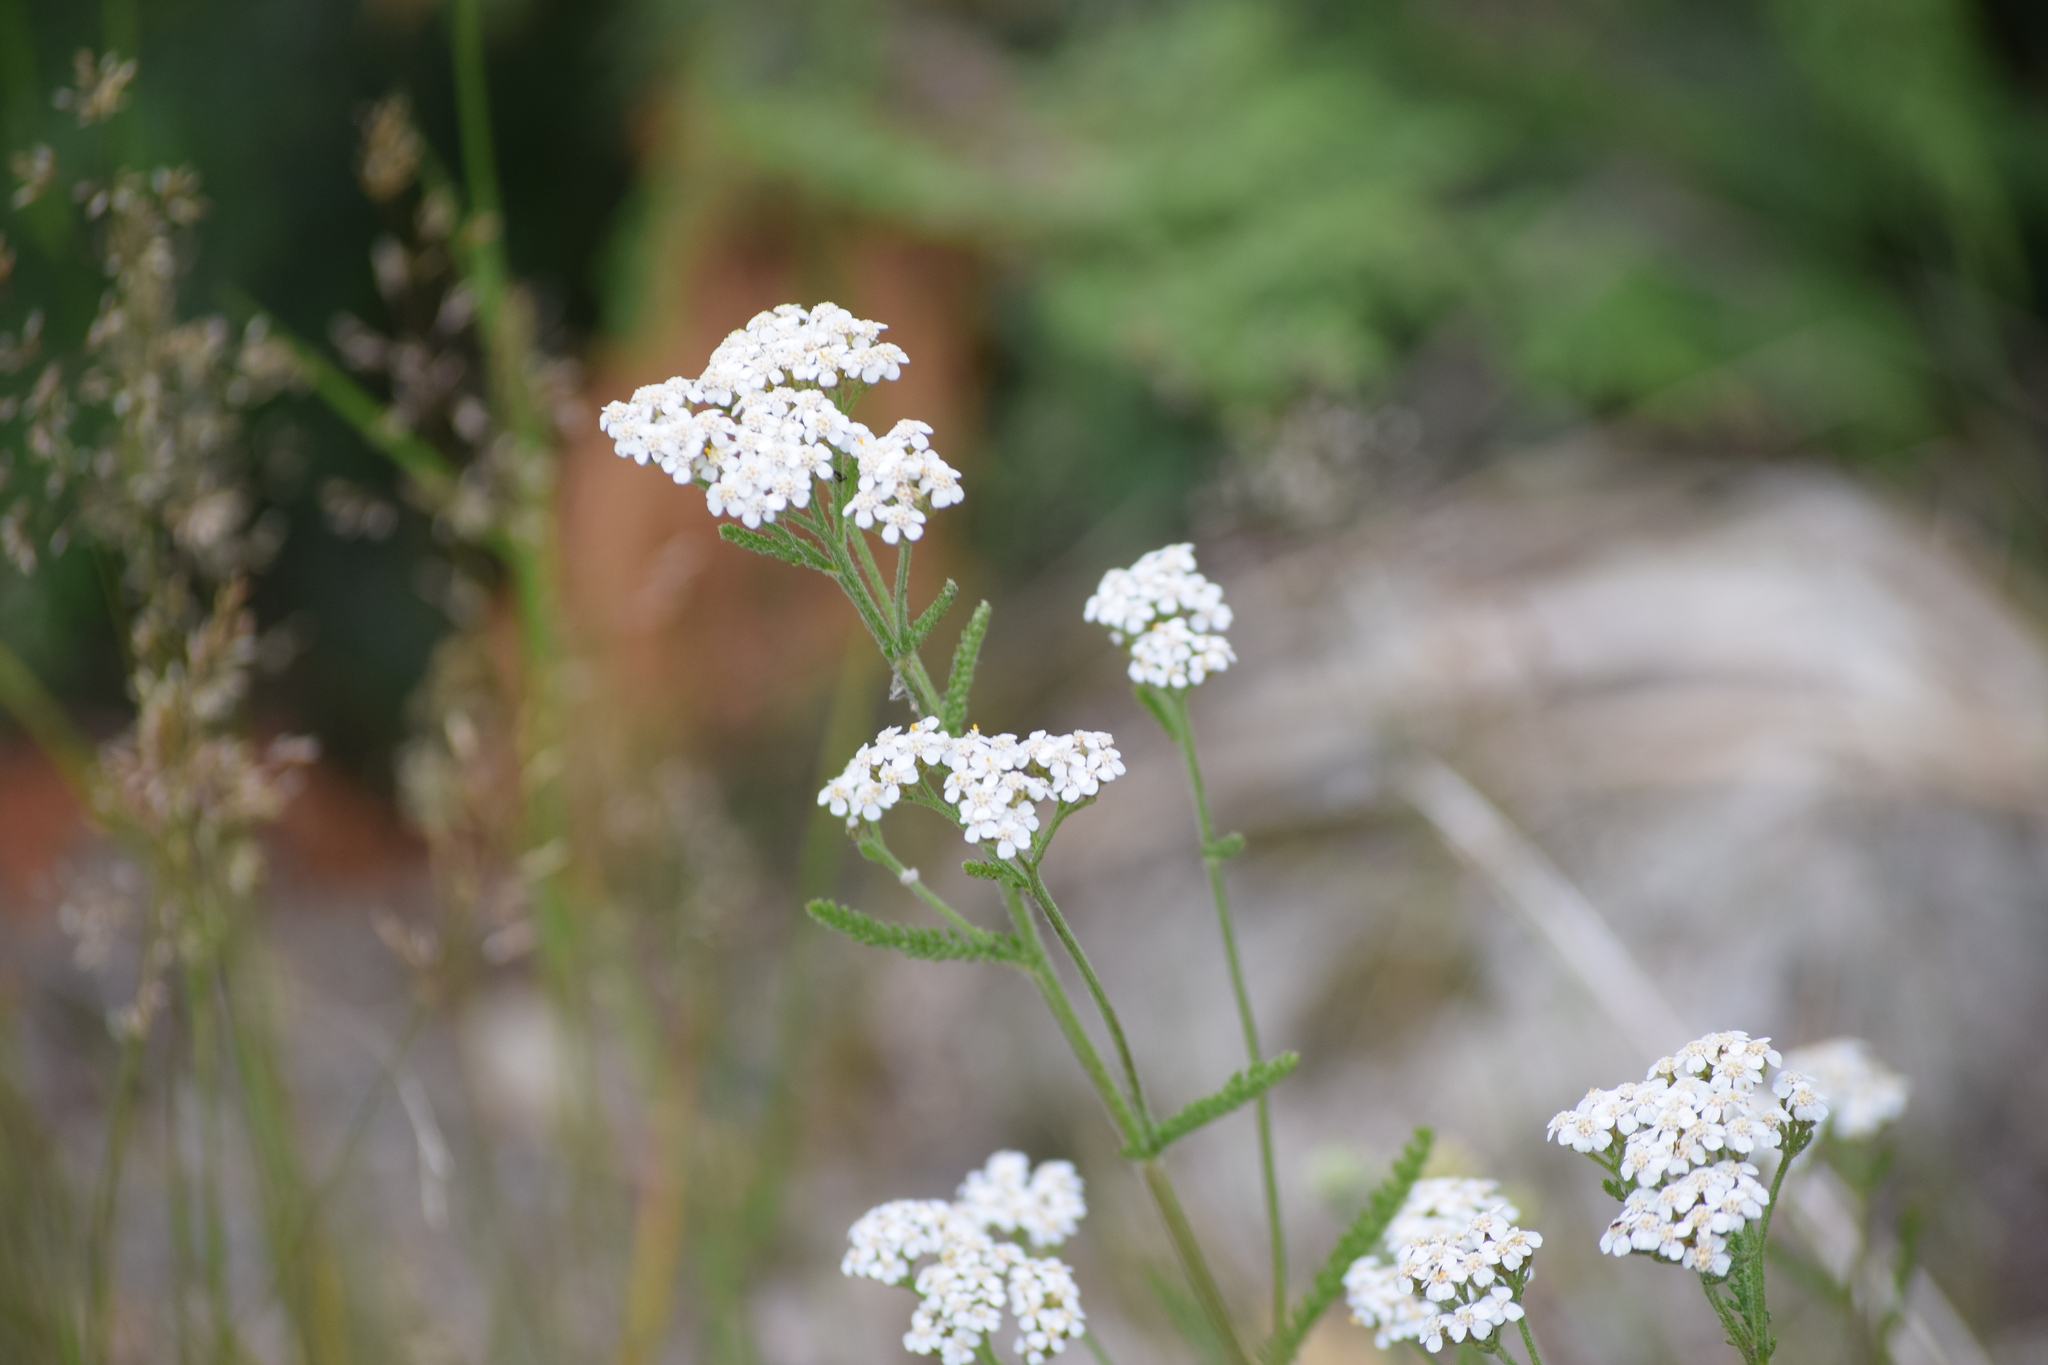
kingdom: Plantae
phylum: Tracheophyta
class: Magnoliopsida
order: Asterales
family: Asteraceae
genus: Achillea
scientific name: Achillea millefolium
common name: Yarrow
